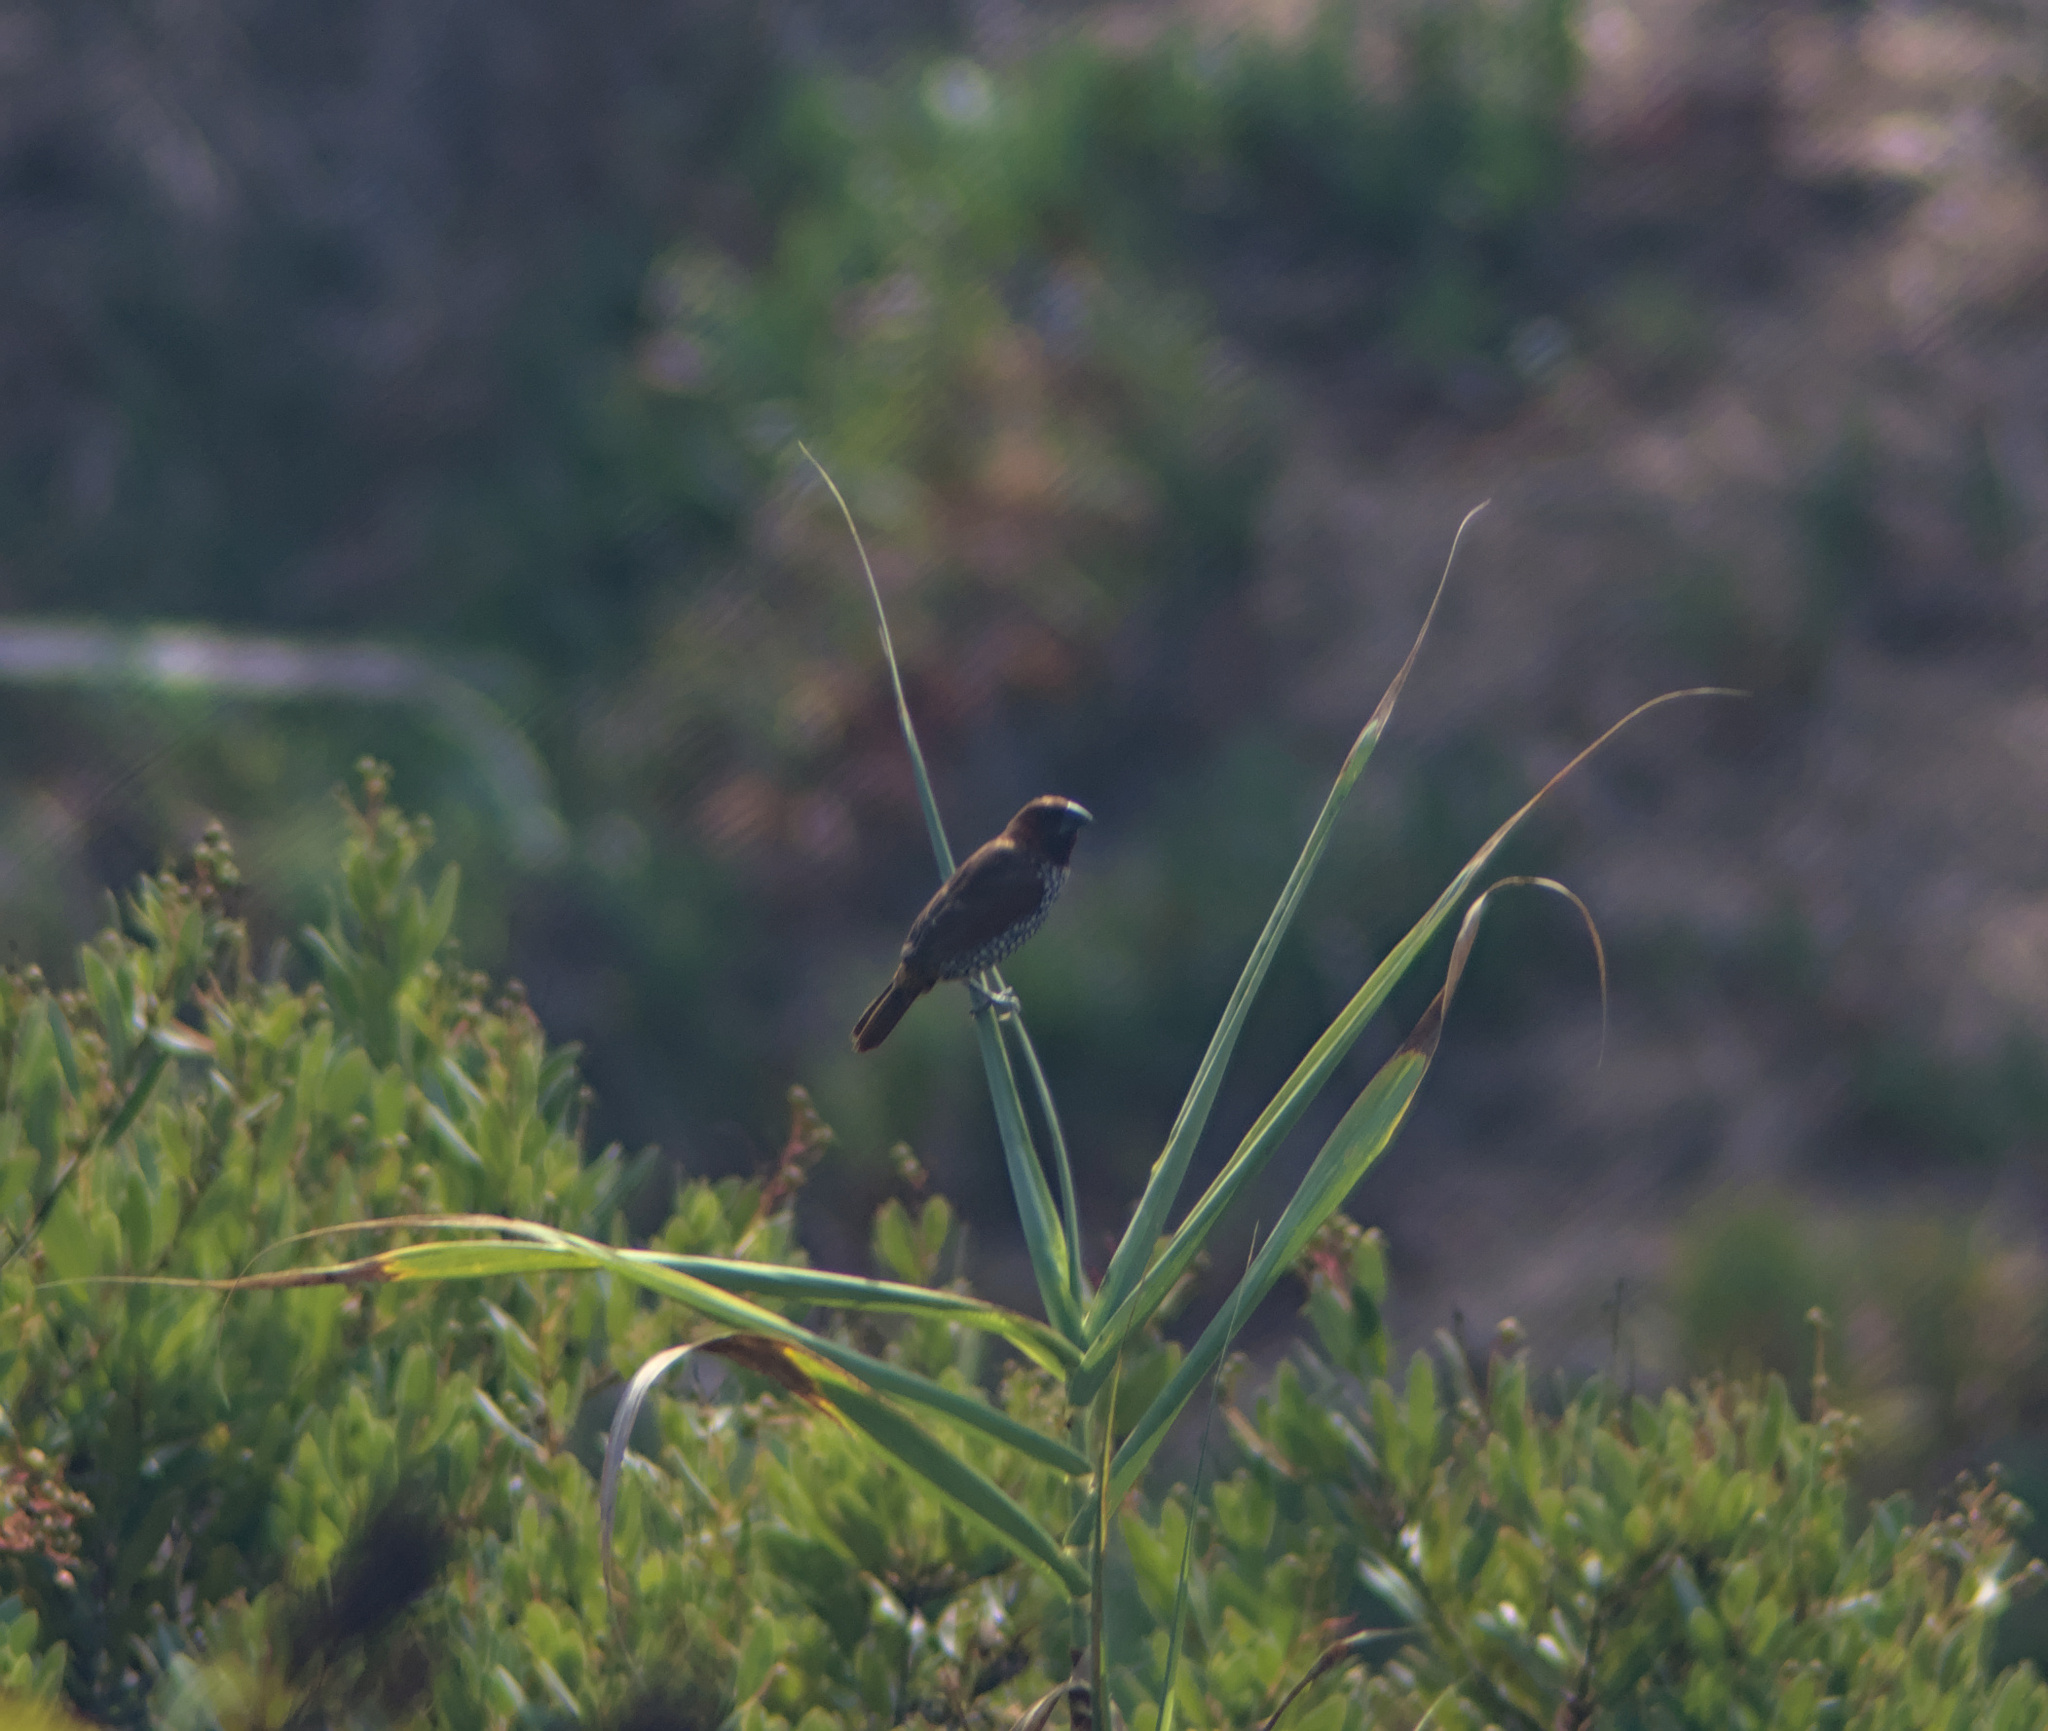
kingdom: Animalia
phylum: Chordata
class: Aves
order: Passeriformes
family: Estrildidae
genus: Lonchura
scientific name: Lonchura punctulata
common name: Scaly-breasted munia
